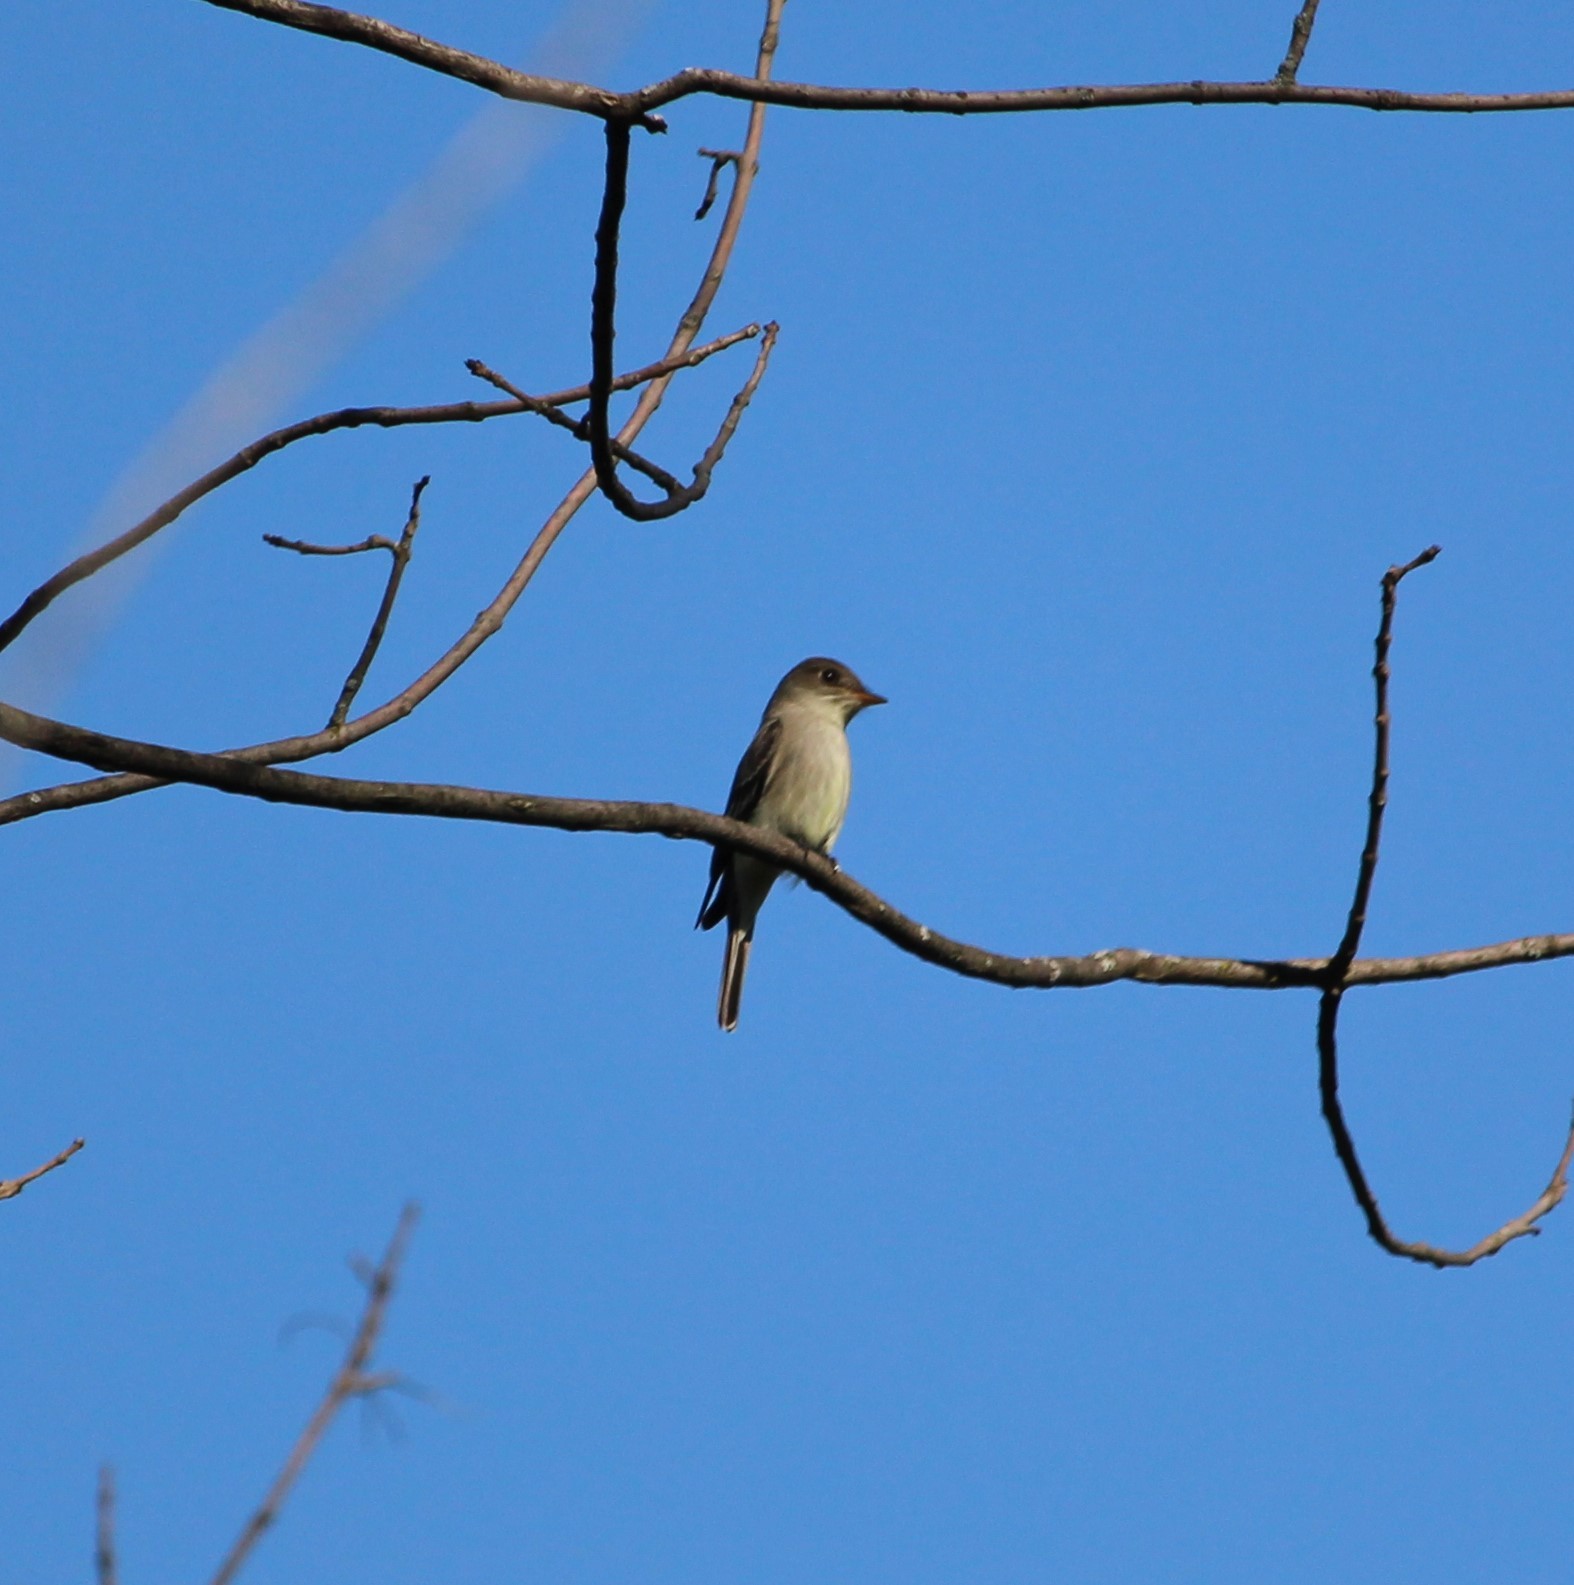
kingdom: Animalia
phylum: Chordata
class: Aves
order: Passeriformes
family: Tyrannidae
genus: Contopus
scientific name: Contopus virens
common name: Eastern wood-pewee
